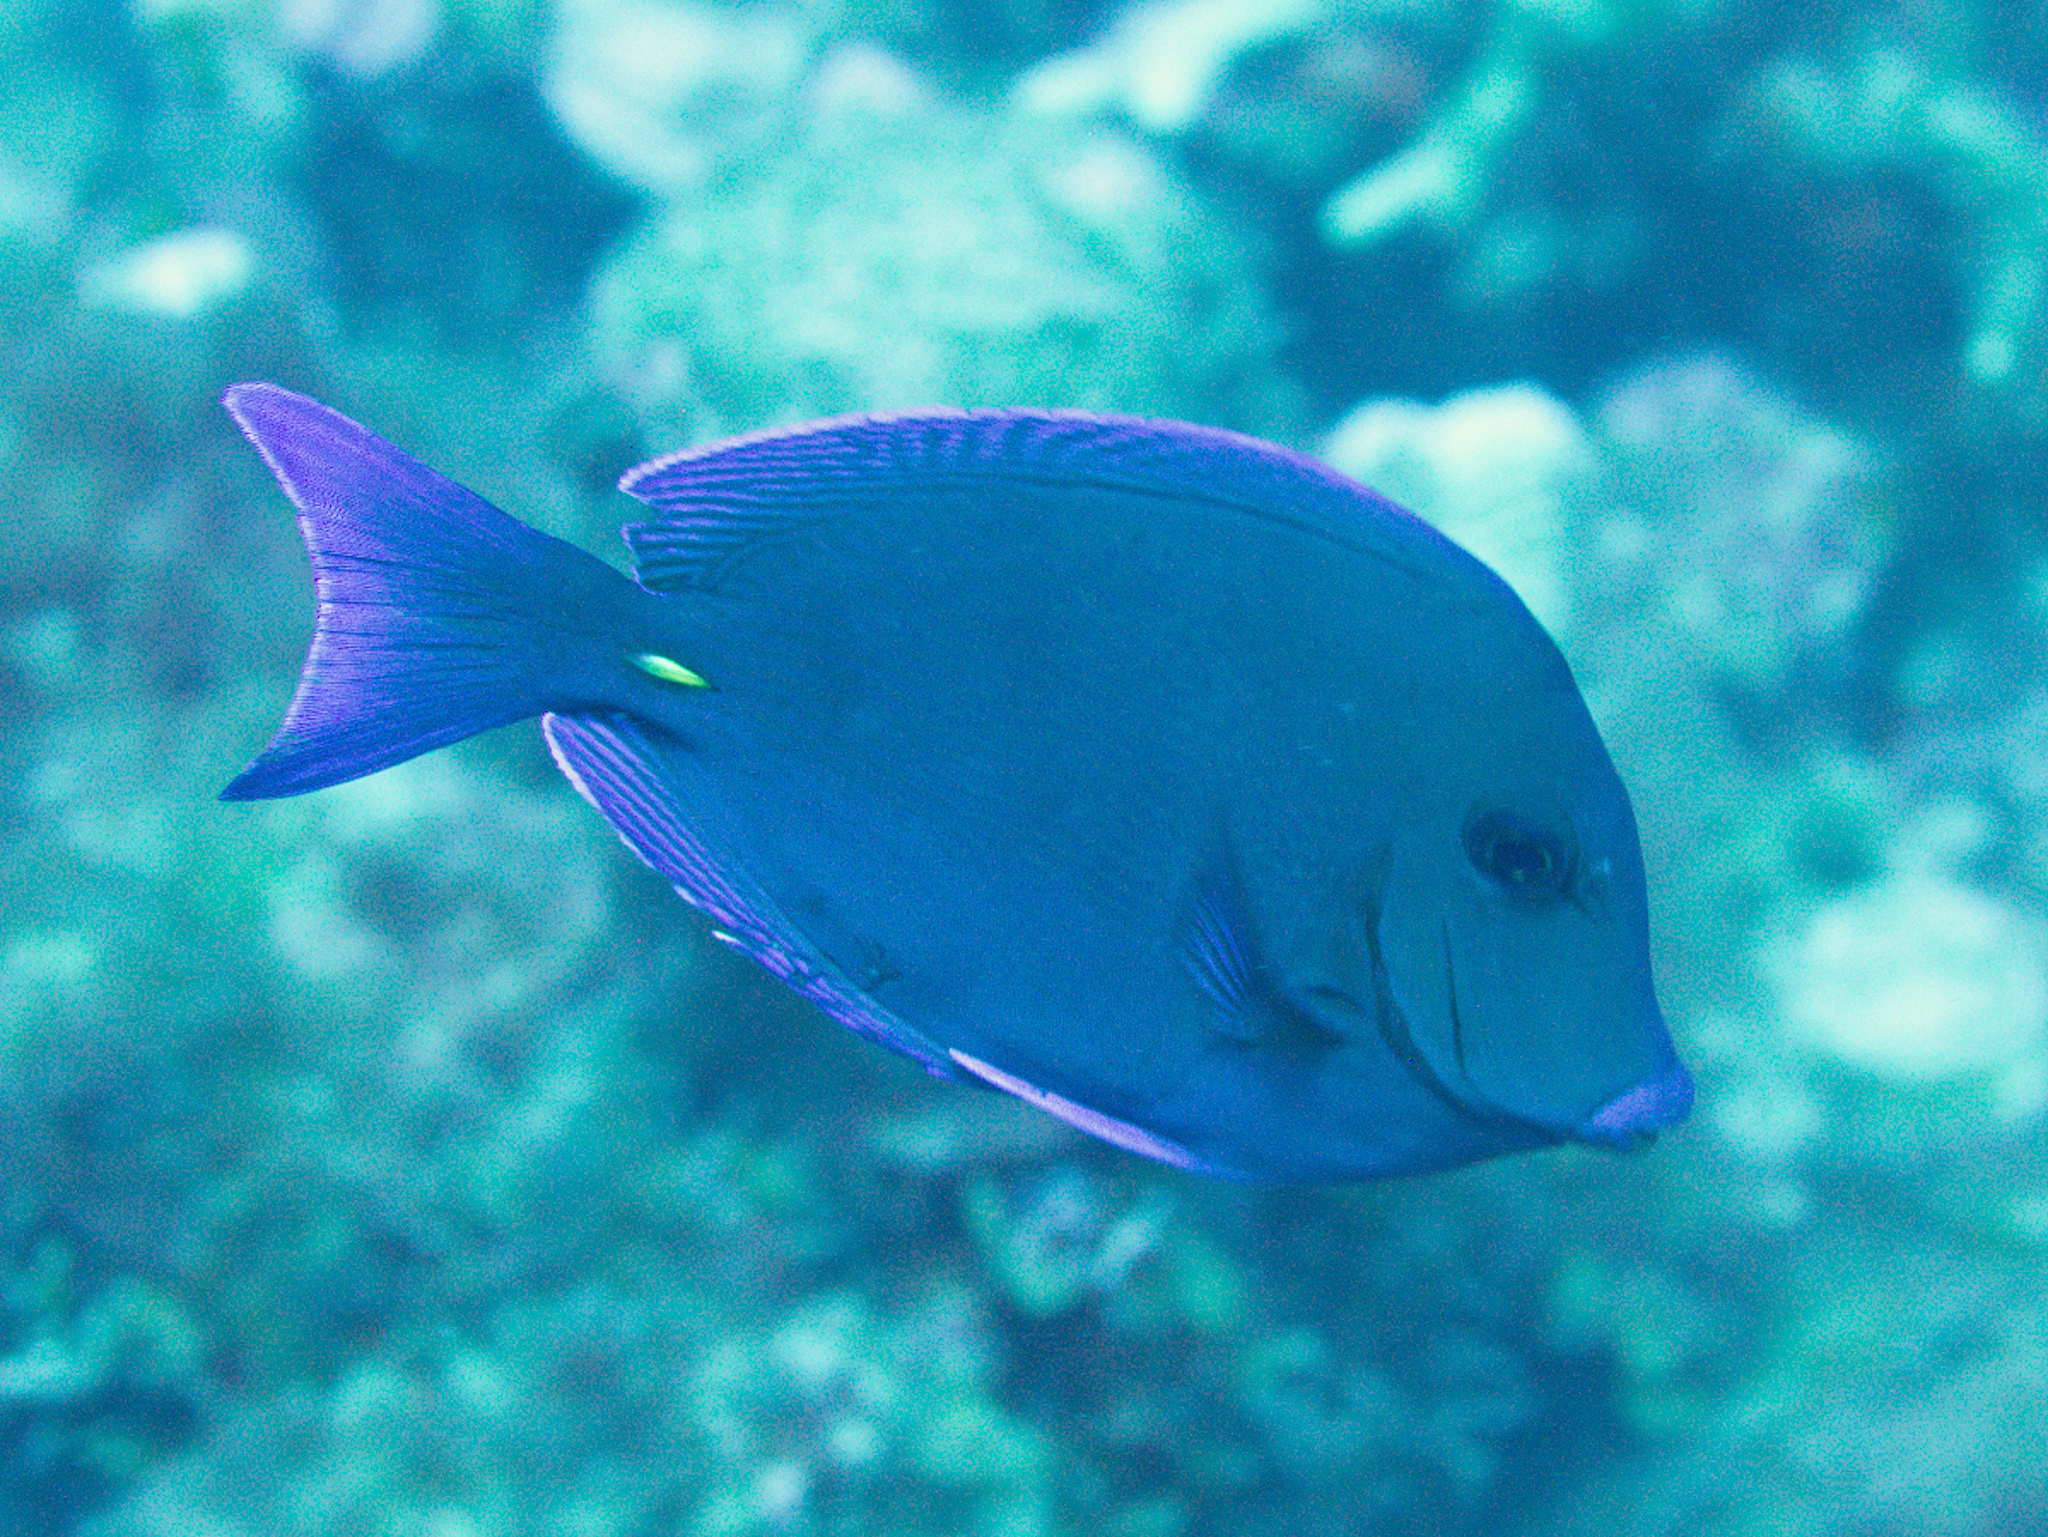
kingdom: Animalia
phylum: Chordata
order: Perciformes
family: Acanthuridae
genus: Acanthurus
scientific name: Acanthurus coeruleus
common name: Blue tang
